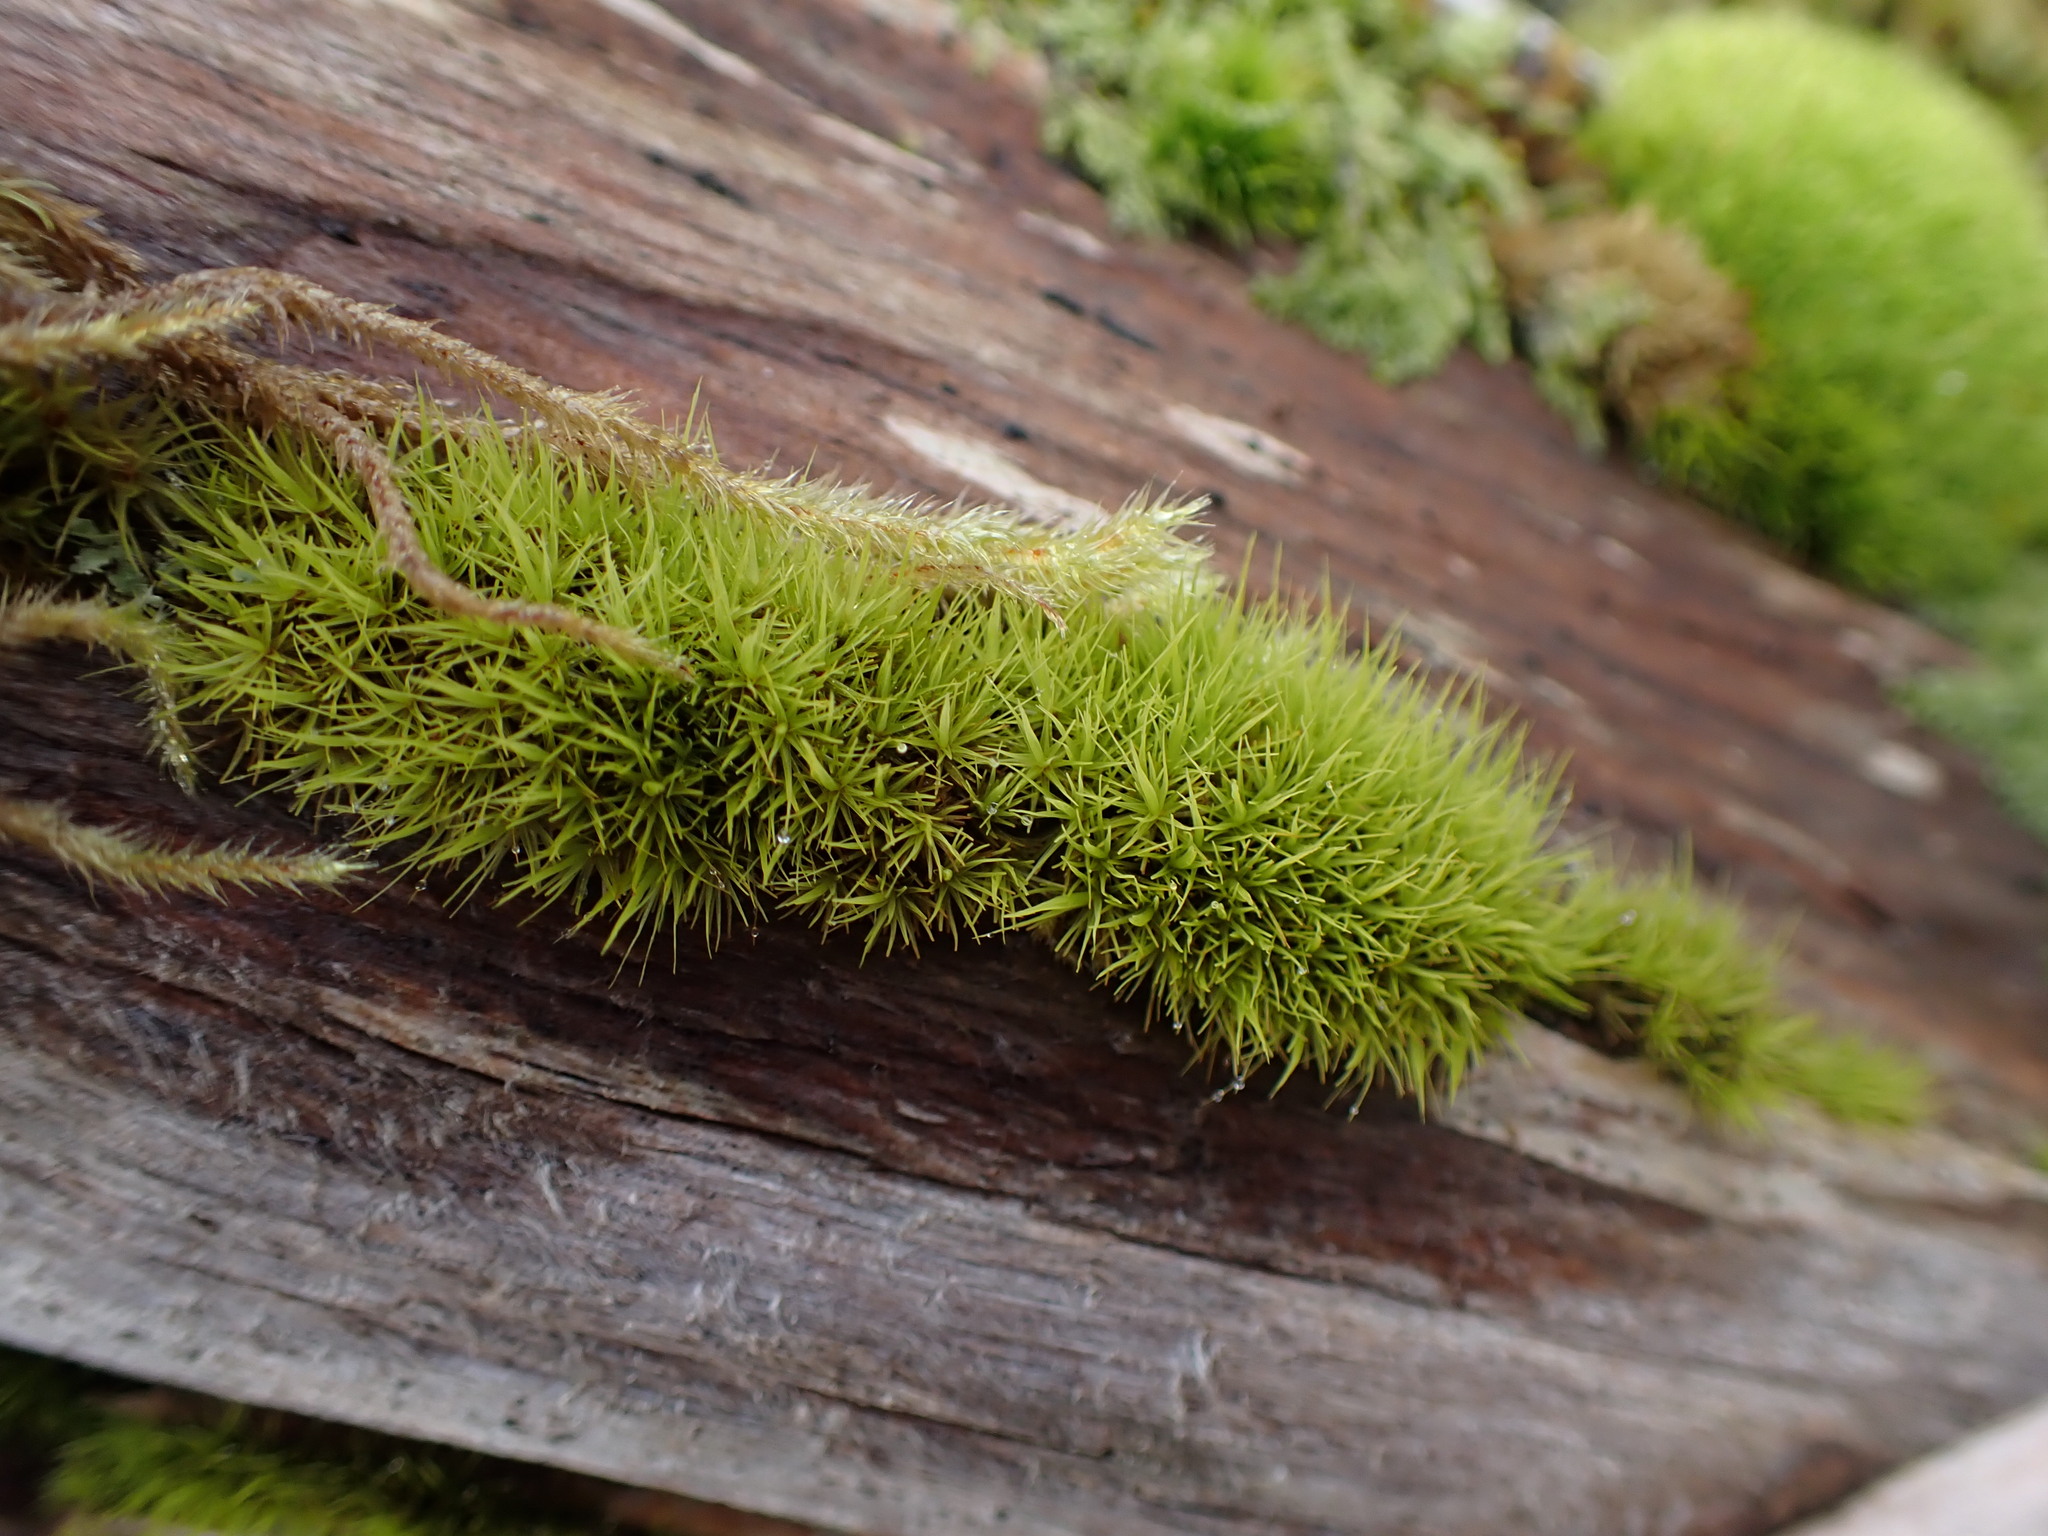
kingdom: Plantae
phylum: Bryophyta
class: Bryopsida
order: Dicranales
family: Dicranaceae
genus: Orthodicranum
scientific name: Orthodicranum tauricum
